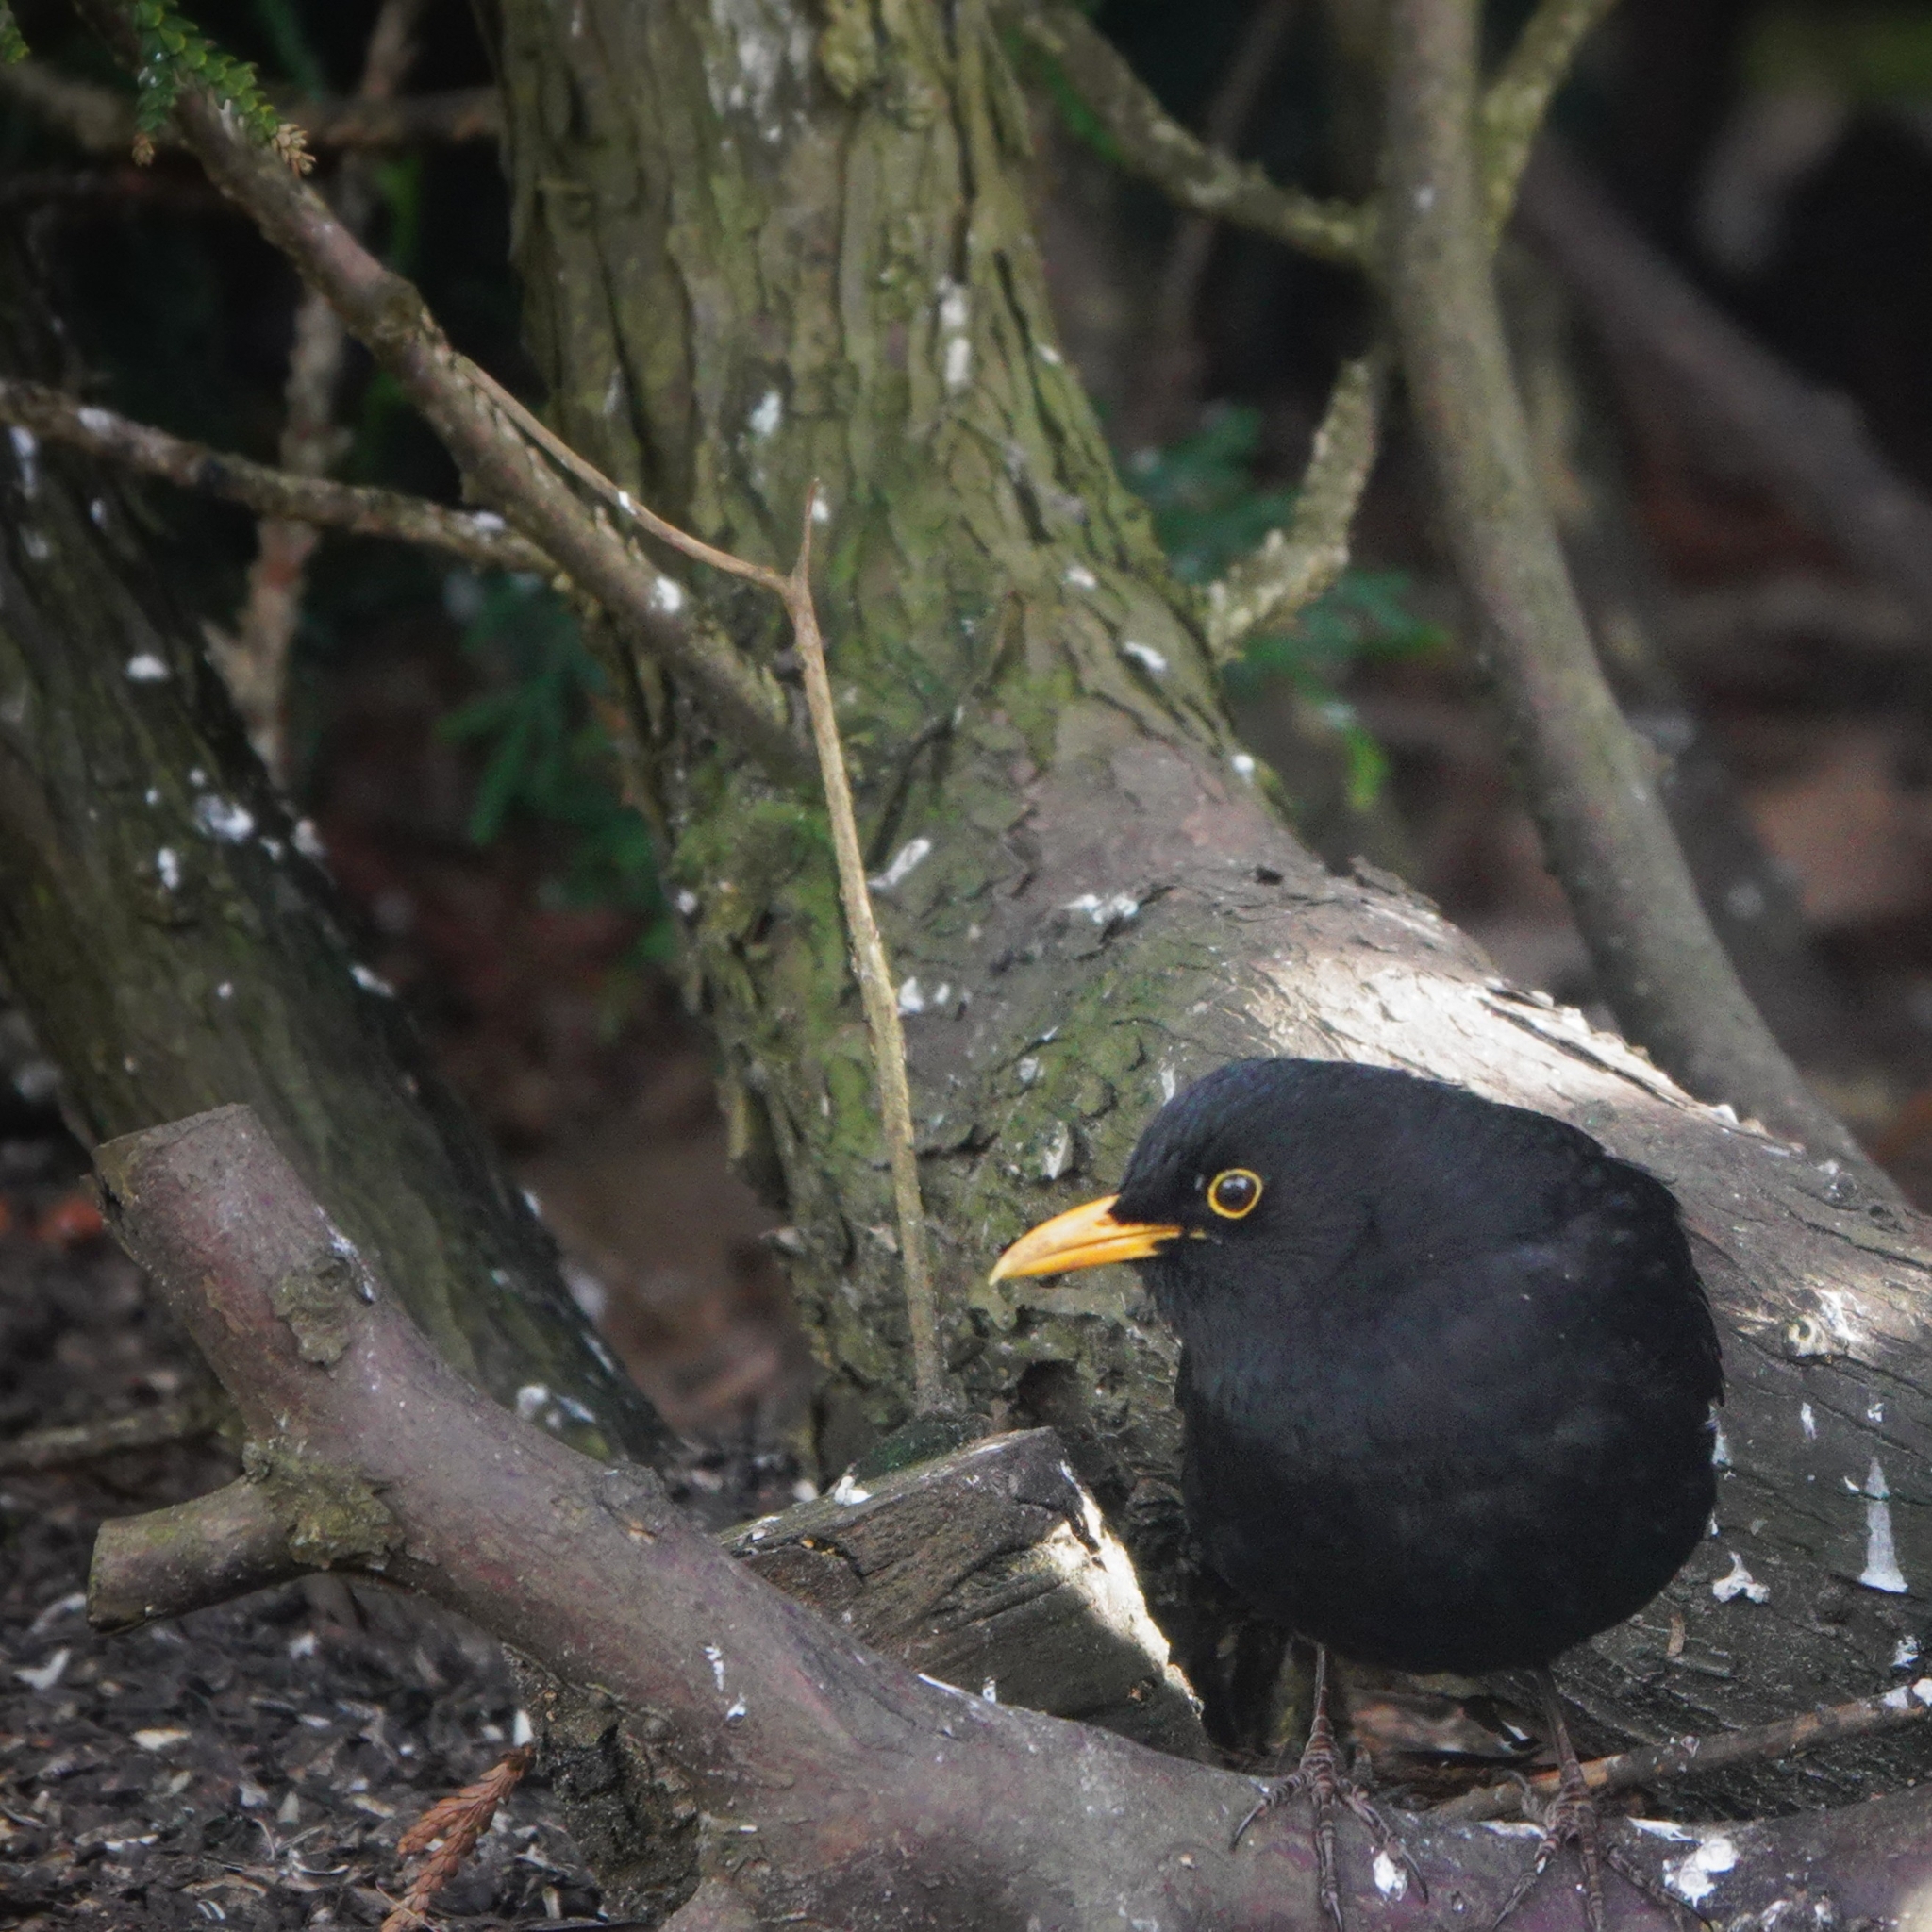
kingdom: Animalia
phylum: Chordata
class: Aves
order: Passeriformes
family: Turdidae
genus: Turdus
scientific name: Turdus merula
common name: Common blackbird
